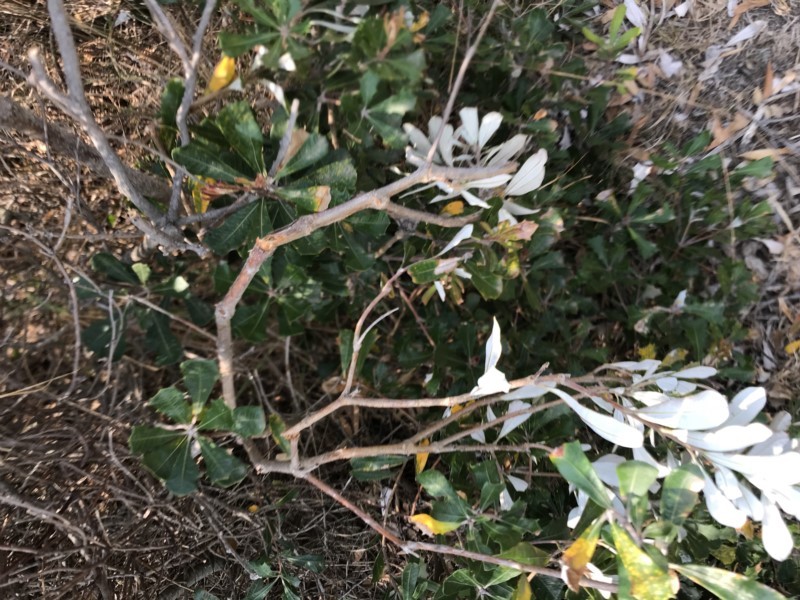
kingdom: Plantae
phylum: Tracheophyta
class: Magnoliopsida
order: Proteales
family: Proteaceae
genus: Banksia
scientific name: Banksia integrifolia
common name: White-honeysuckle
